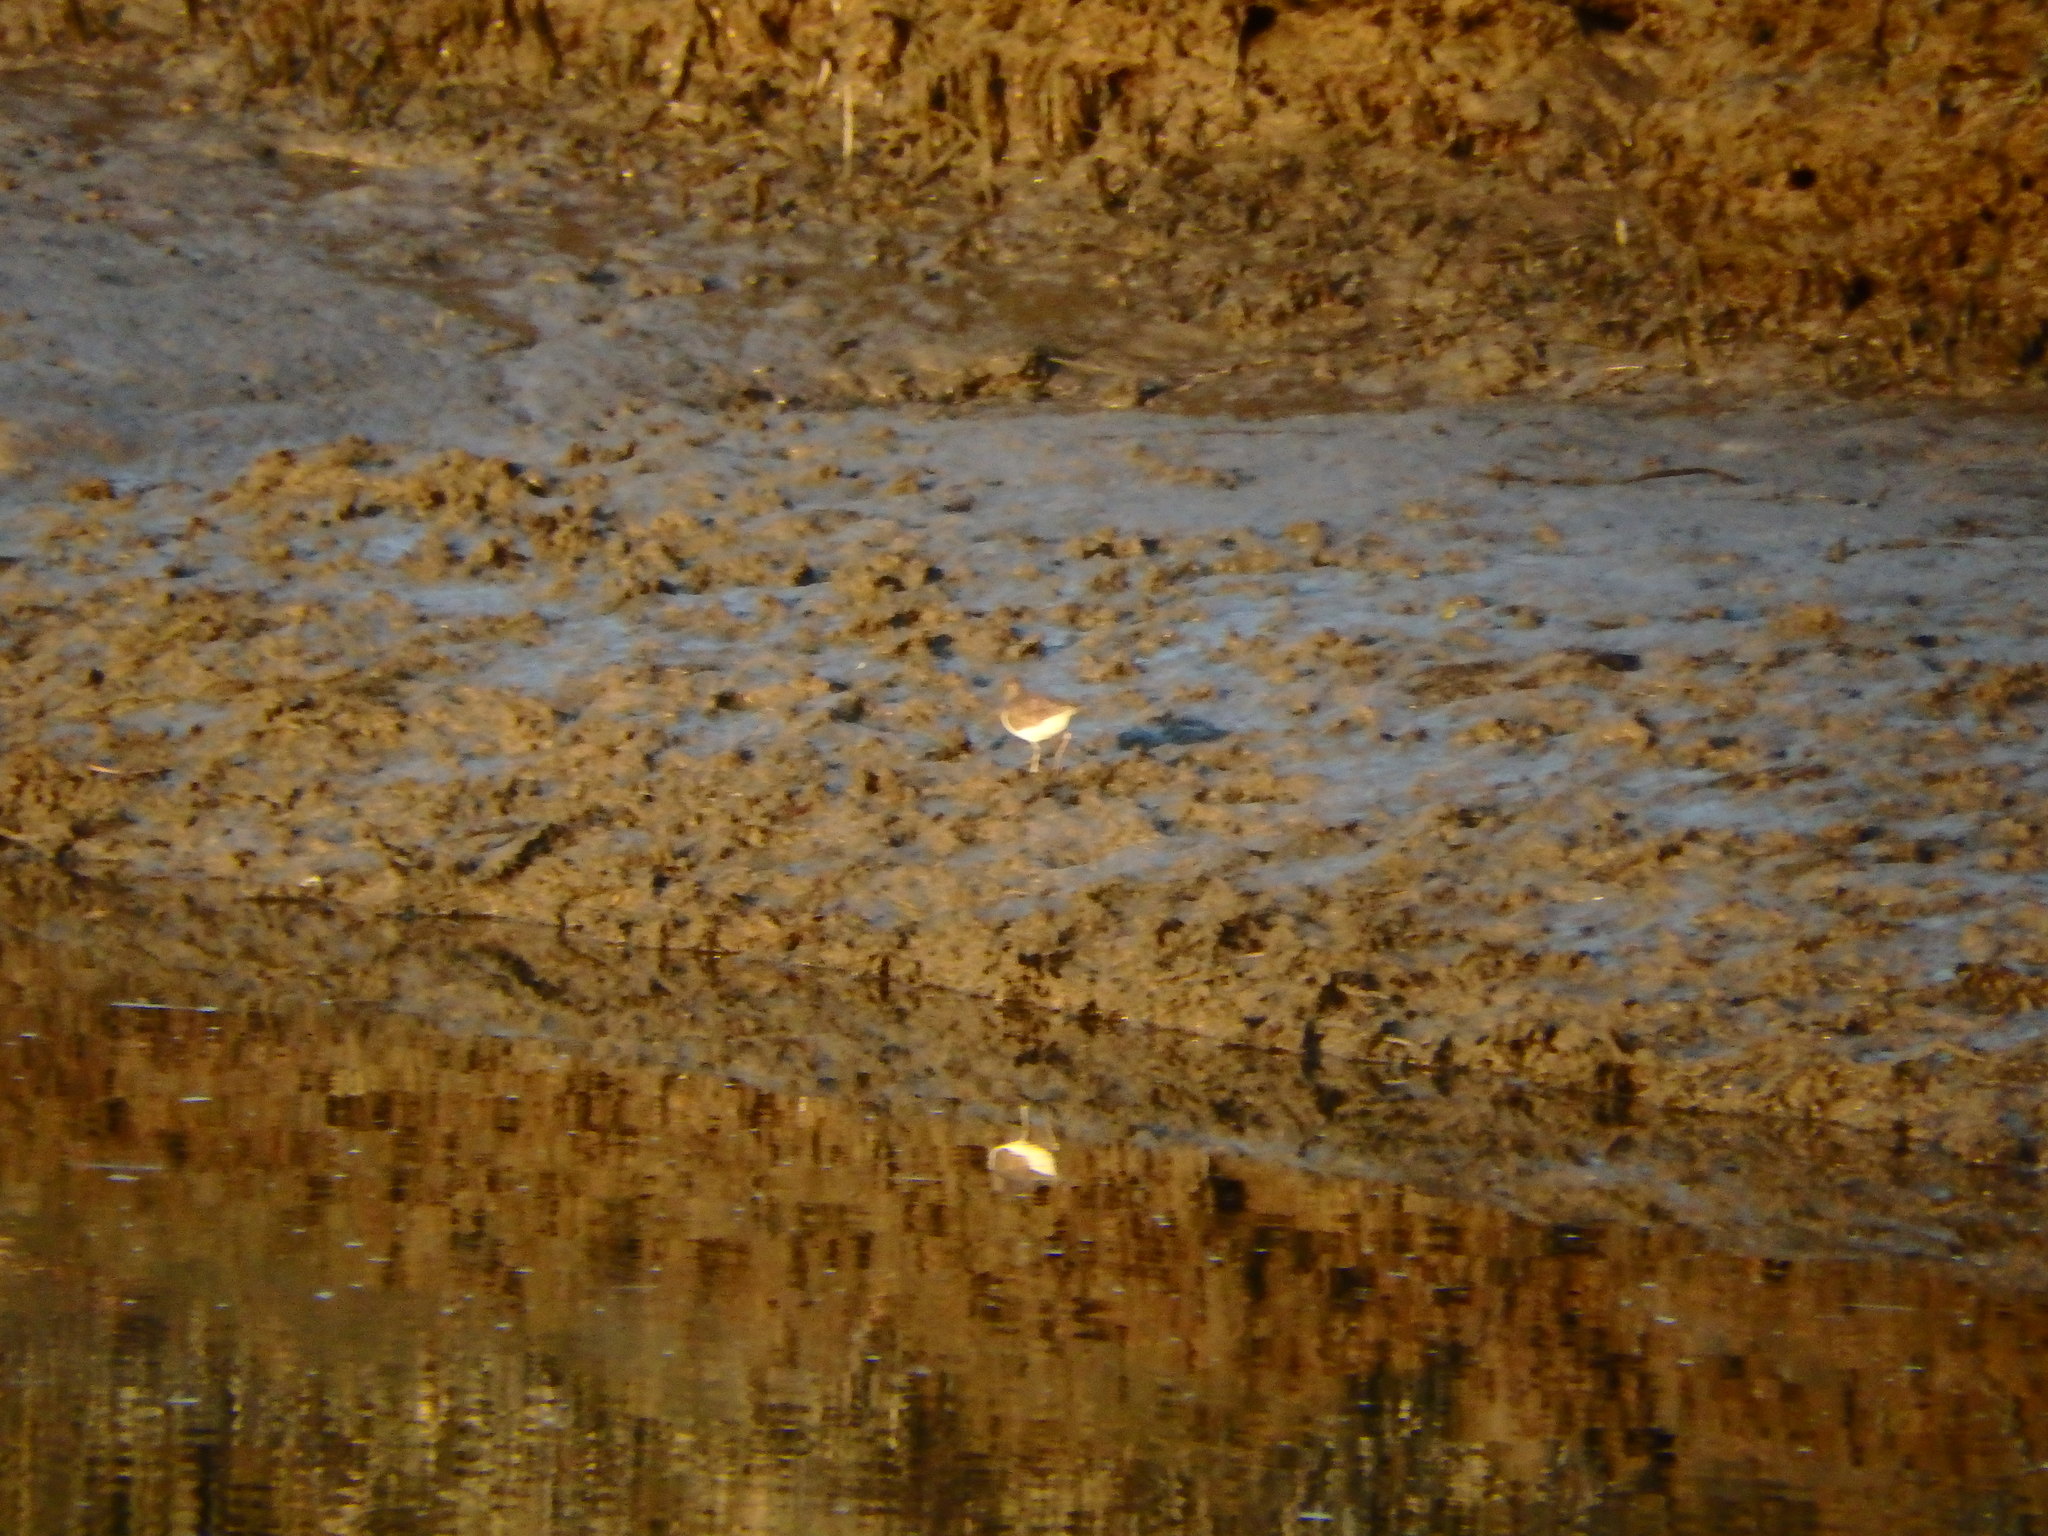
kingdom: Animalia
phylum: Chordata
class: Aves
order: Charadriiformes
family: Scolopacidae
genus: Actitis
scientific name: Actitis hypoleucos
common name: Common sandpiper
